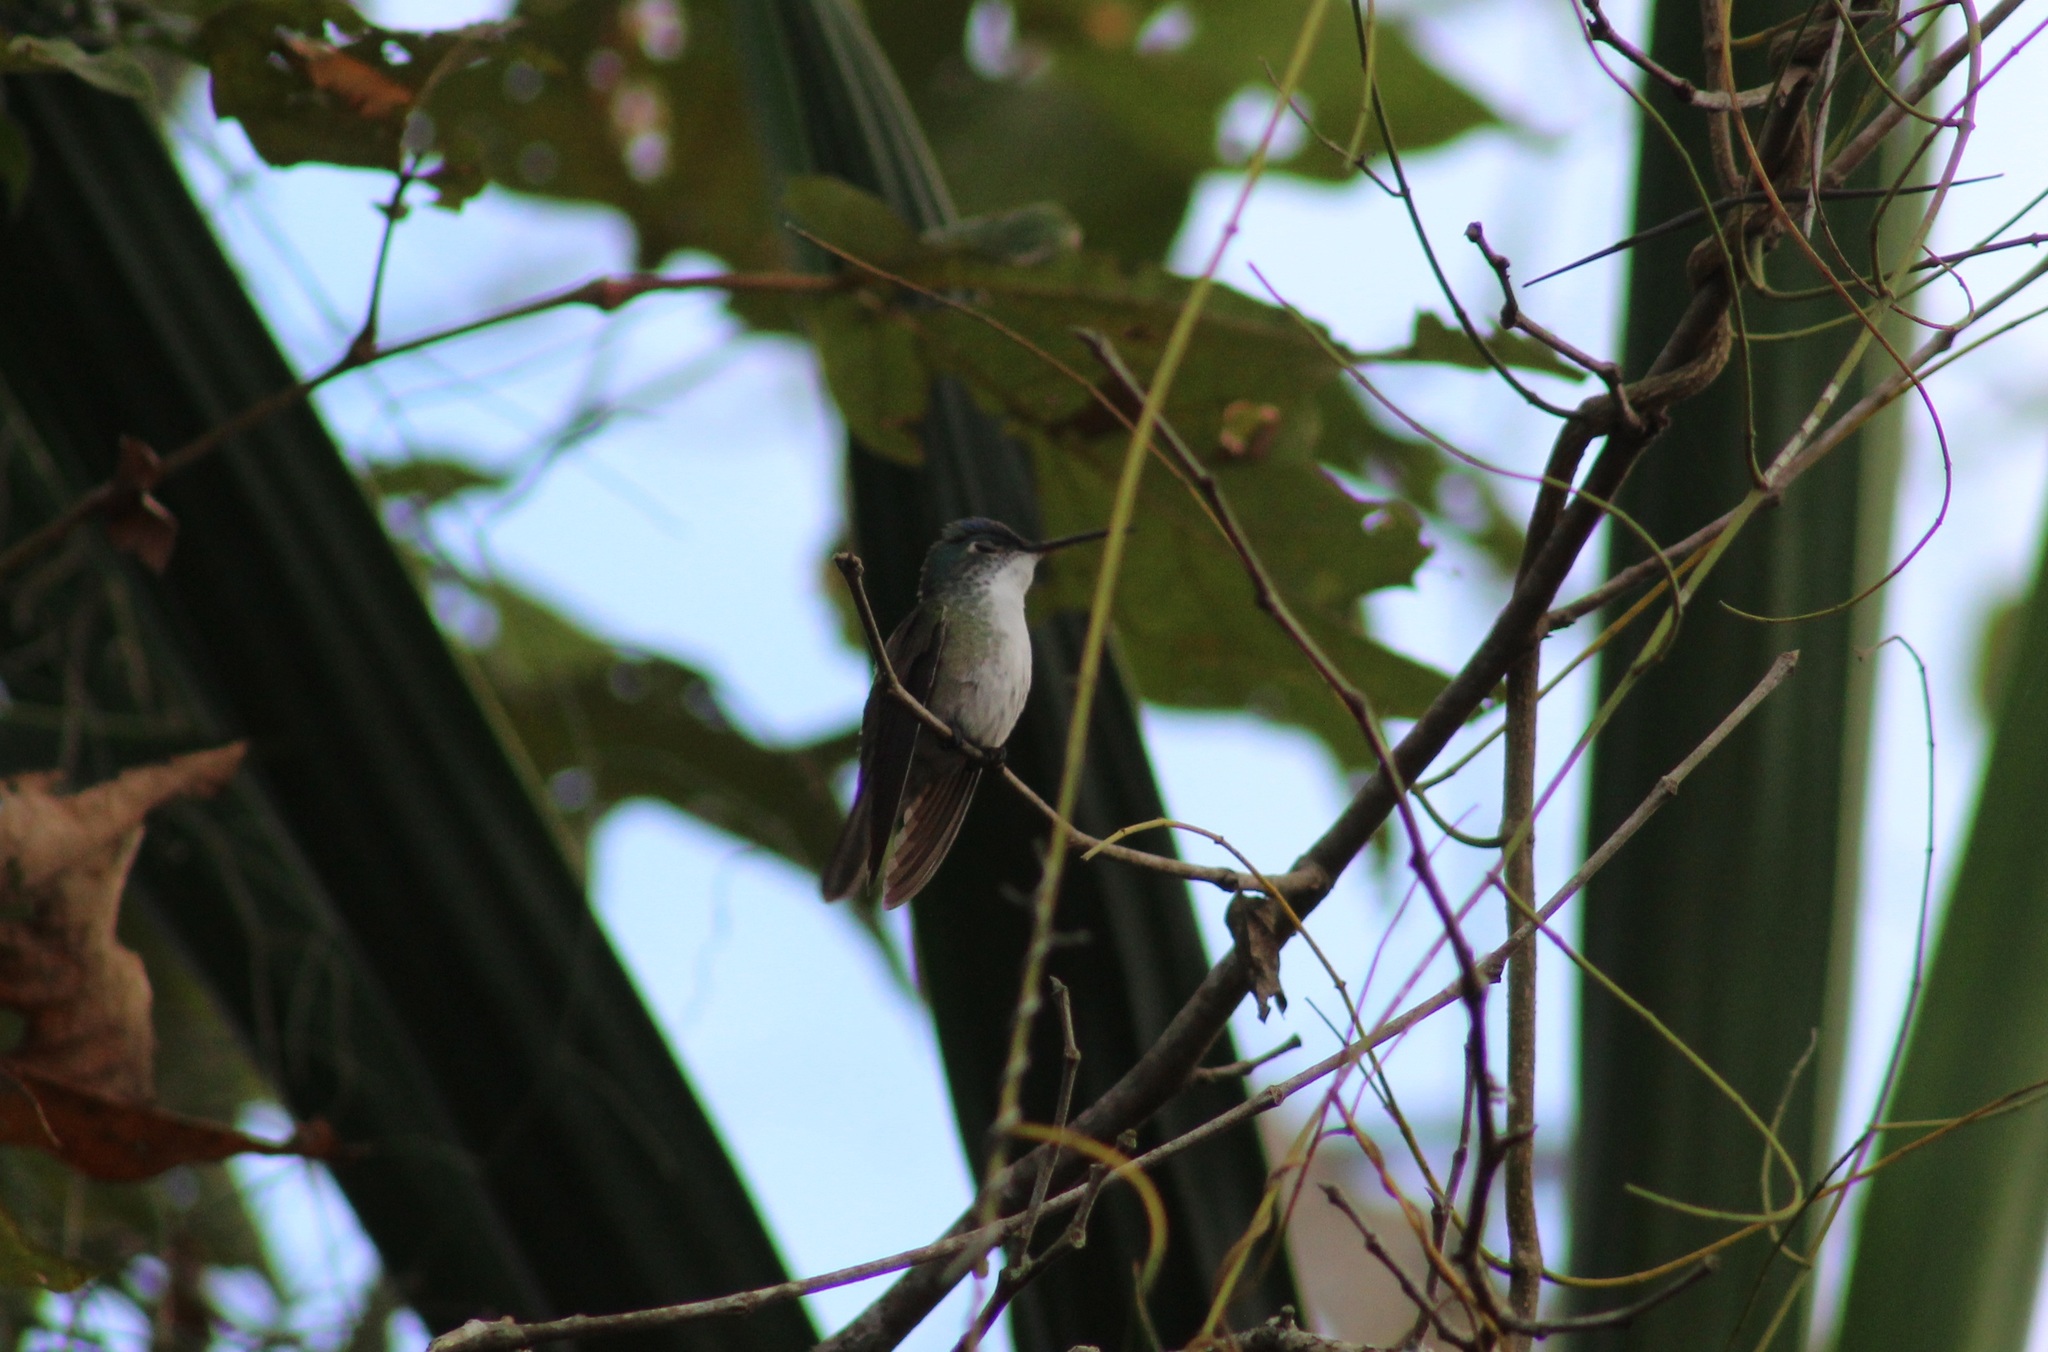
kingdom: Animalia
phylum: Chordata
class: Aves
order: Apodiformes
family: Trochilidae
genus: Saucerottia
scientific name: Saucerottia cyanocephala
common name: Azure-crowned hummingbird
